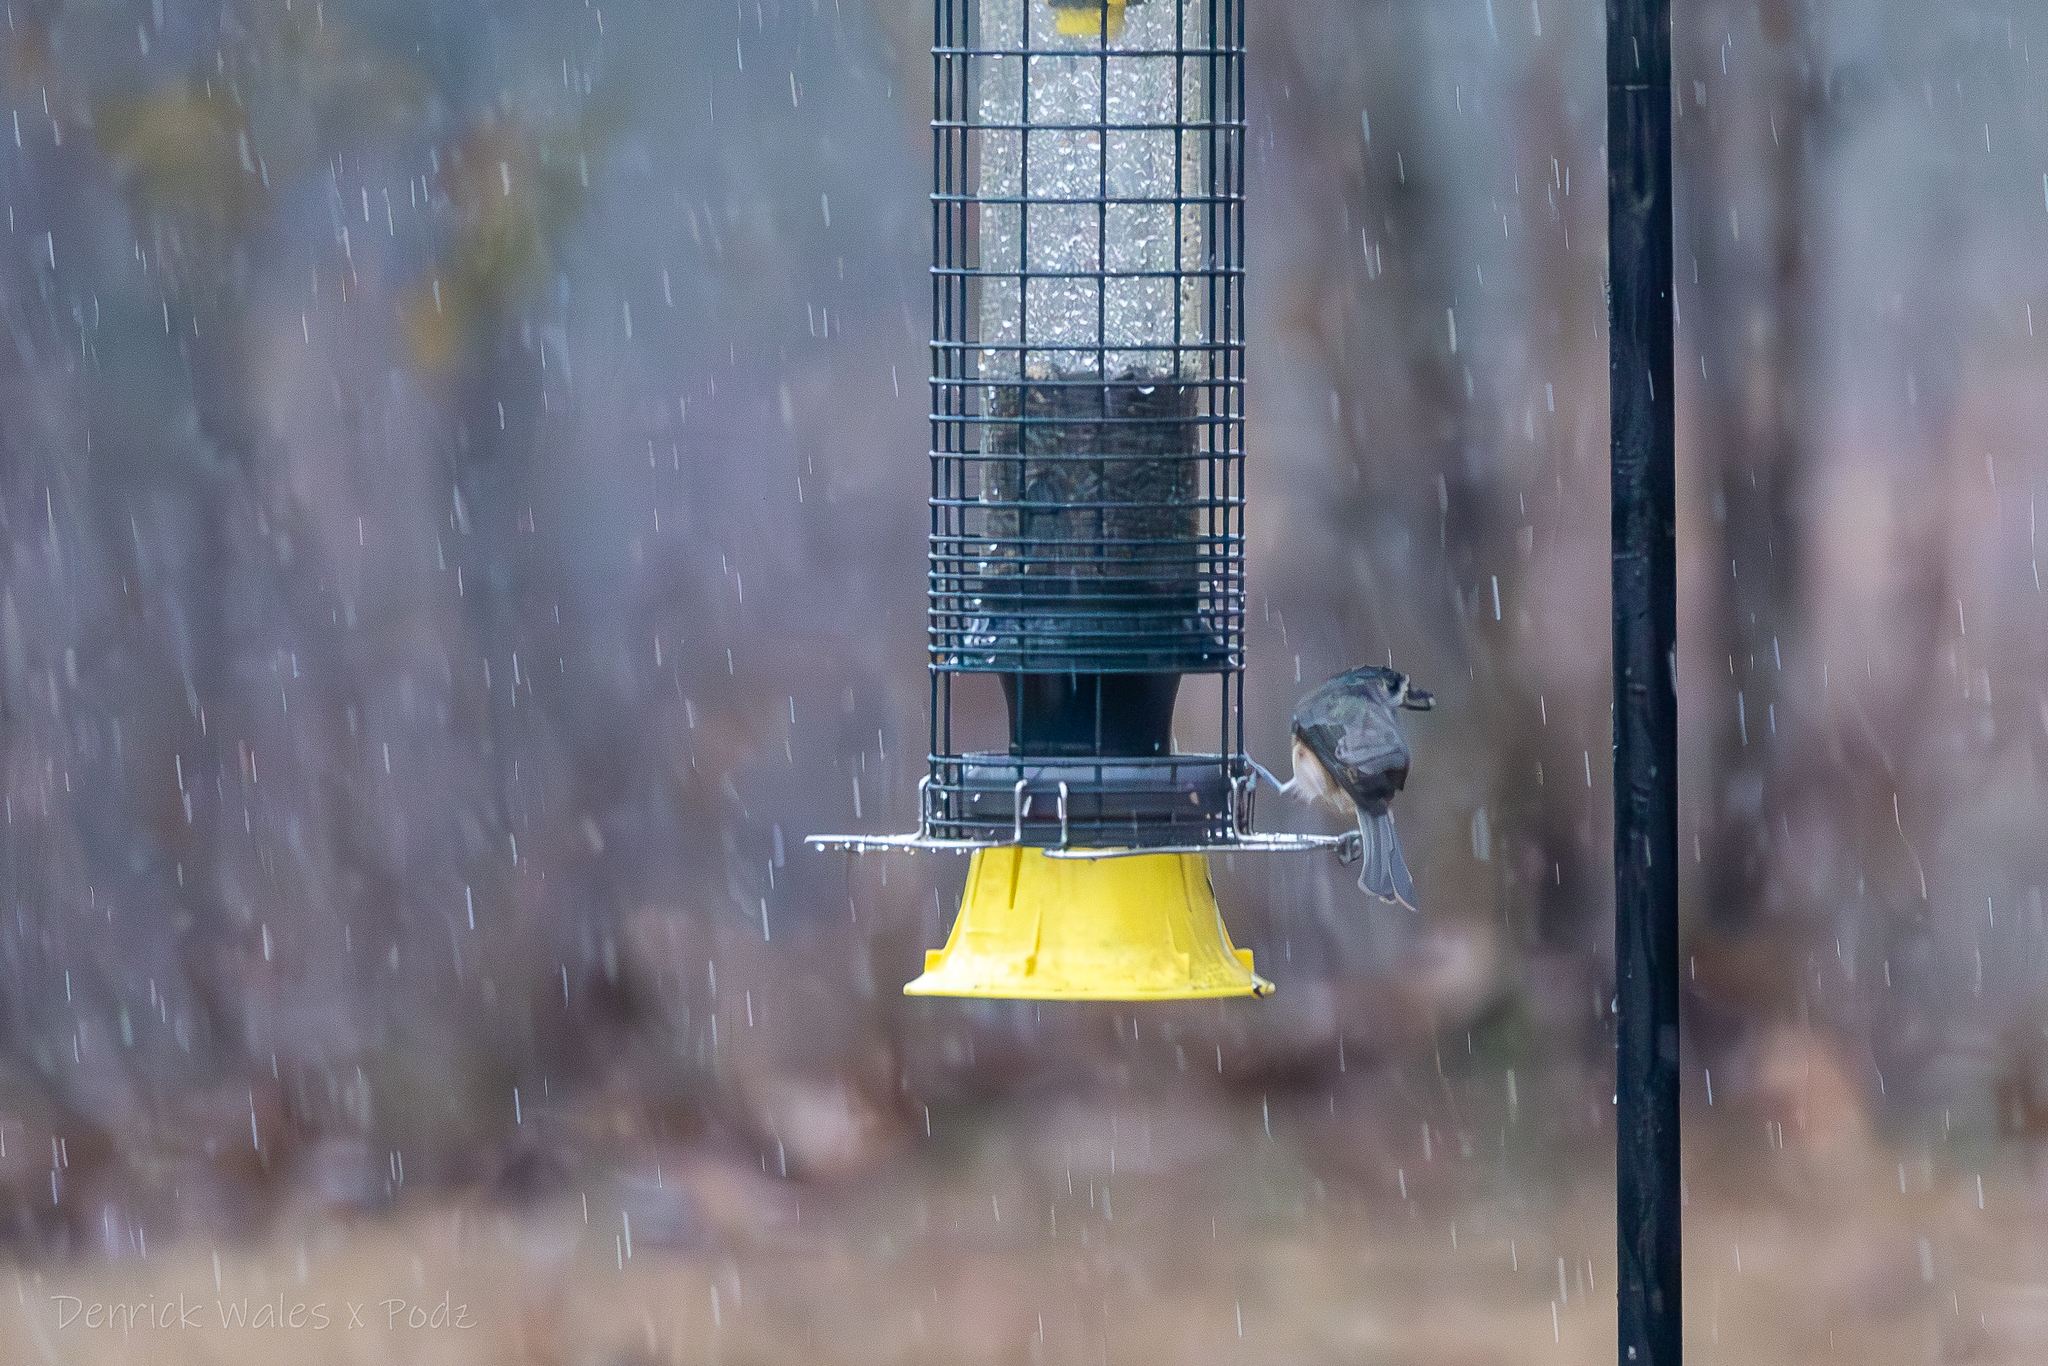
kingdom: Animalia
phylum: Chordata
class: Aves
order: Passeriformes
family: Paridae
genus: Baeolophus
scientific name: Baeolophus bicolor
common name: Tufted titmouse
